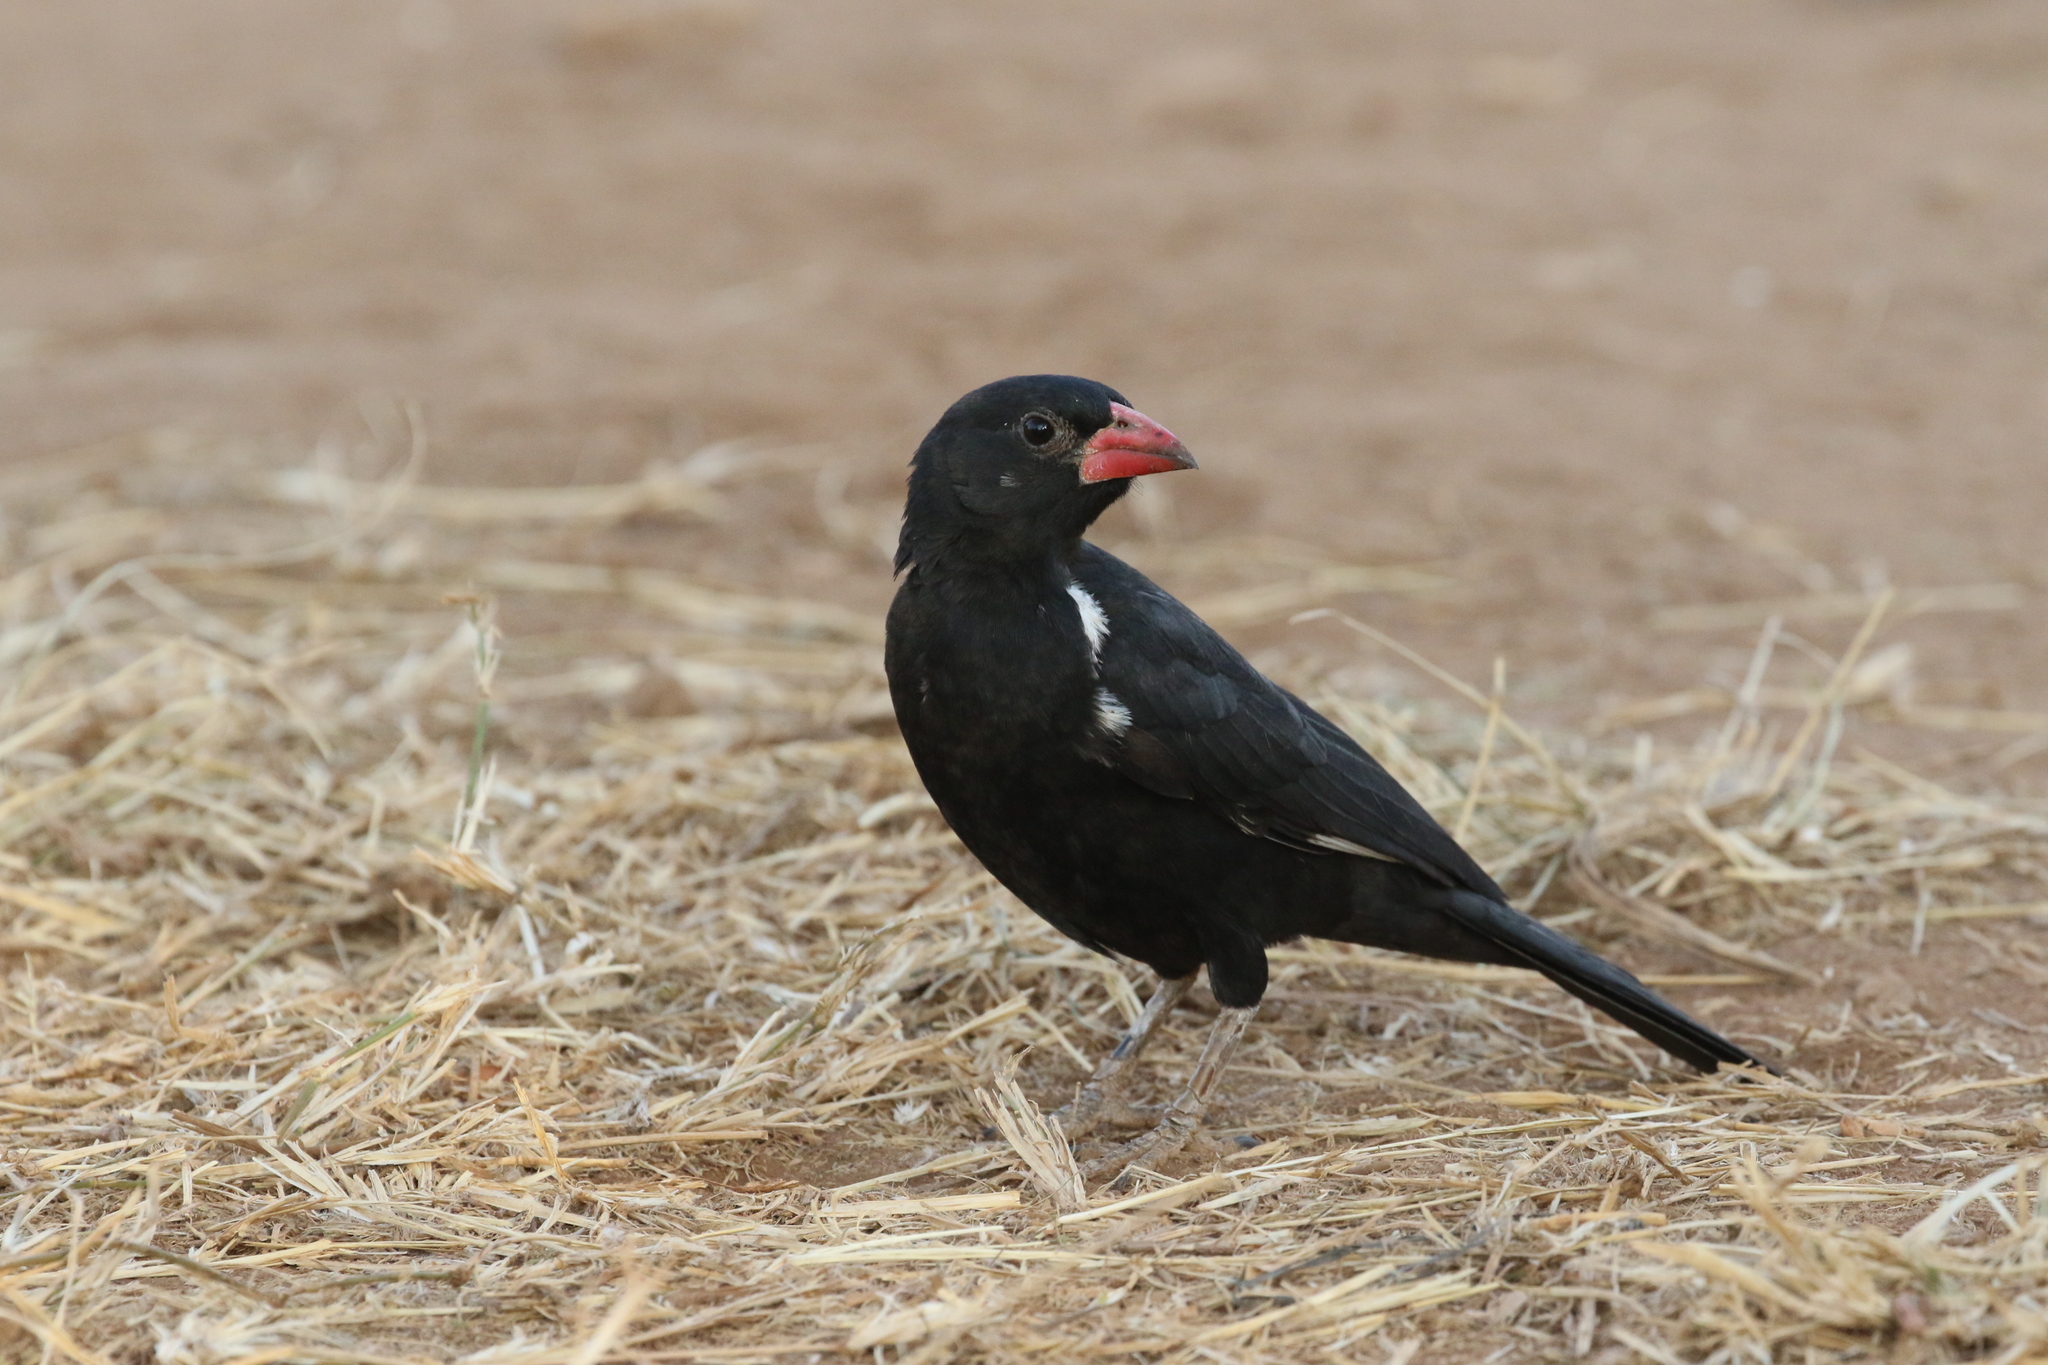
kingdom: Animalia
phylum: Chordata
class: Aves
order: Passeriformes
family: Ploceidae
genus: Bubalornis
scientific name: Bubalornis niger
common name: Red-billed buffalo weaver
